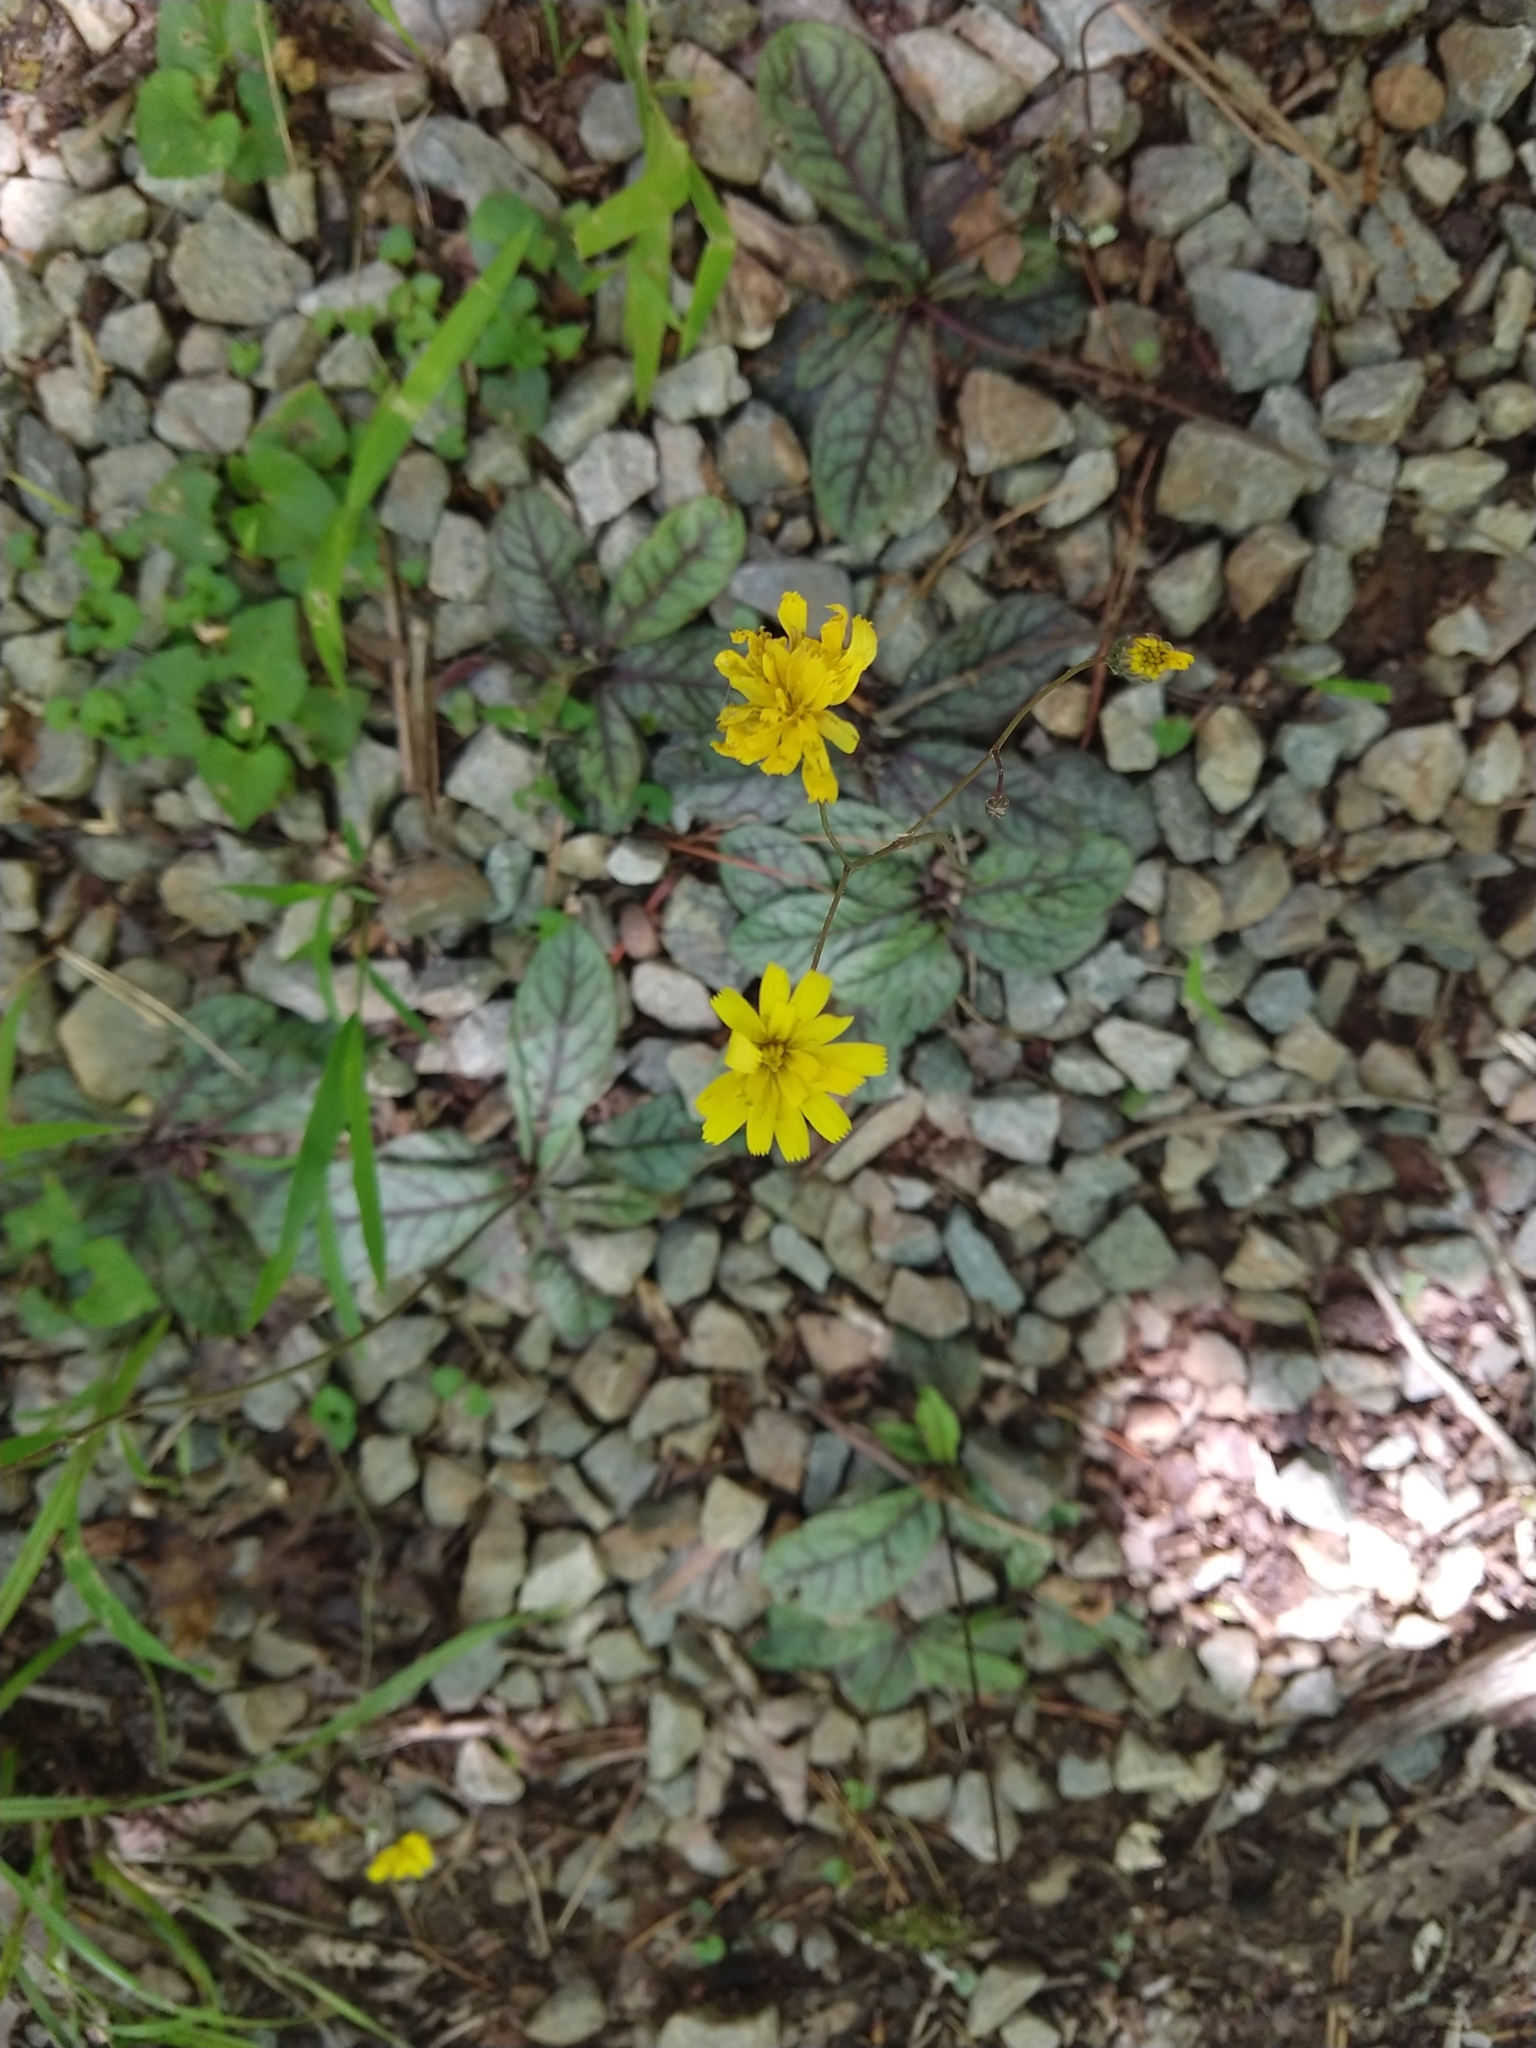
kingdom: Plantae
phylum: Tracheophyta
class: Magnoliopsida
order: Asterales
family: Asteraceae
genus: Hieracium
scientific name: Hieracium venosum
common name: Rattlesnake hawkweed
